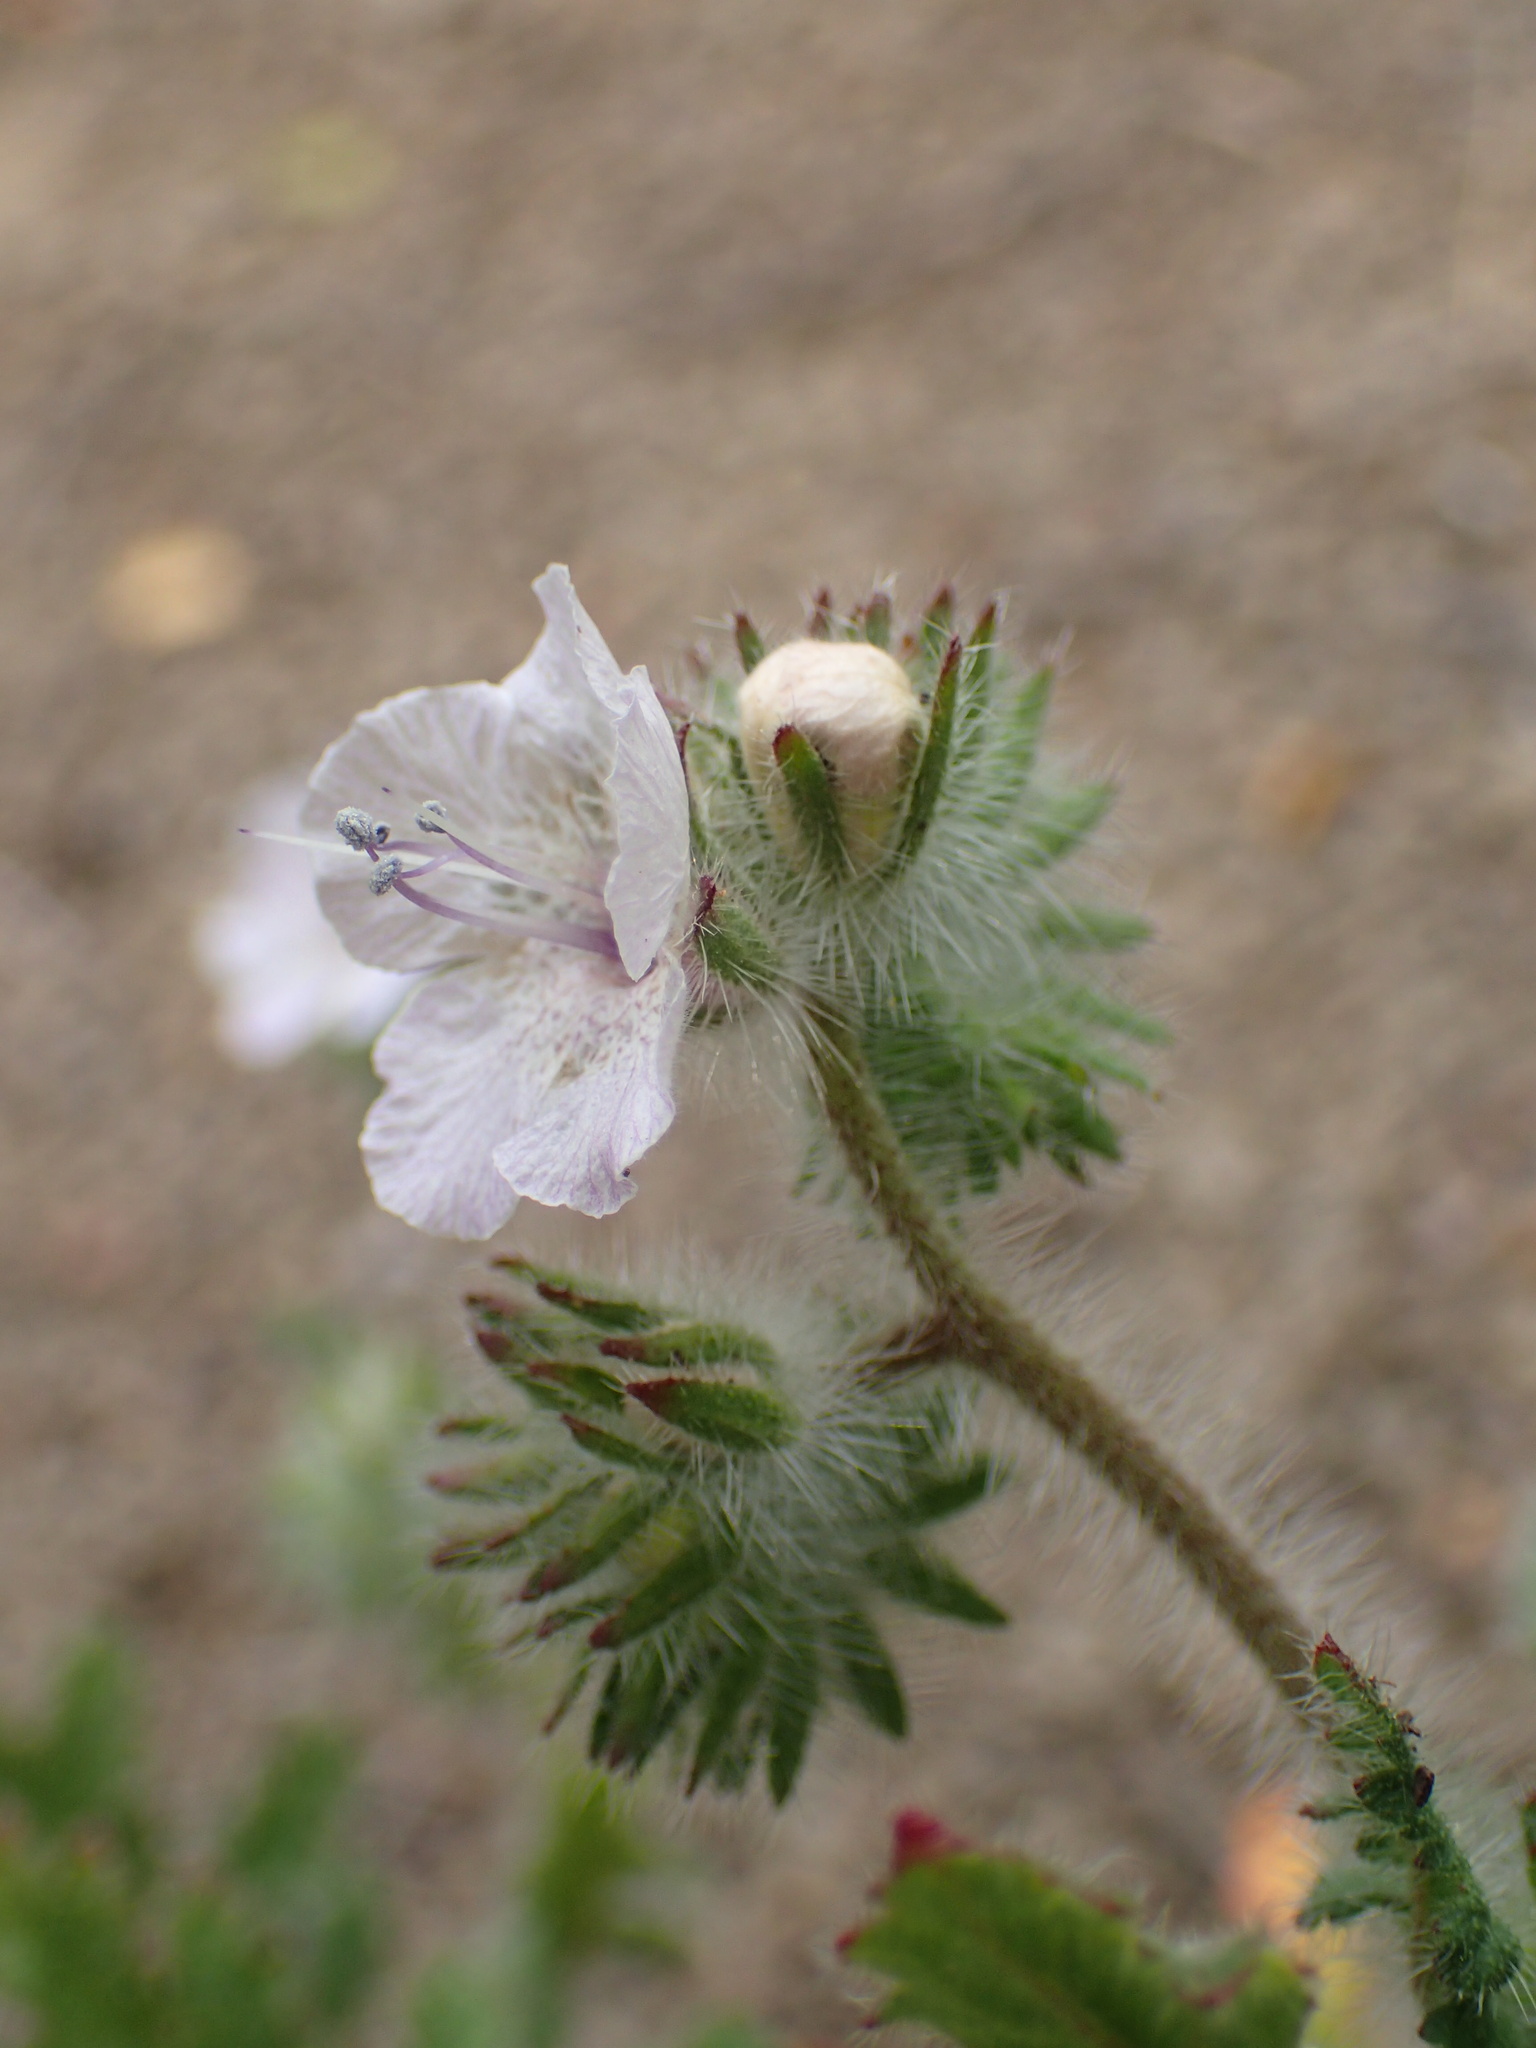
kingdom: Plantae
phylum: Tracheophyta
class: Magnoliopsida
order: Boraginales
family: Hydrophyllaceae
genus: Phacelia
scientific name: Phacelia cicutaria
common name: Caterpillar phacelia
